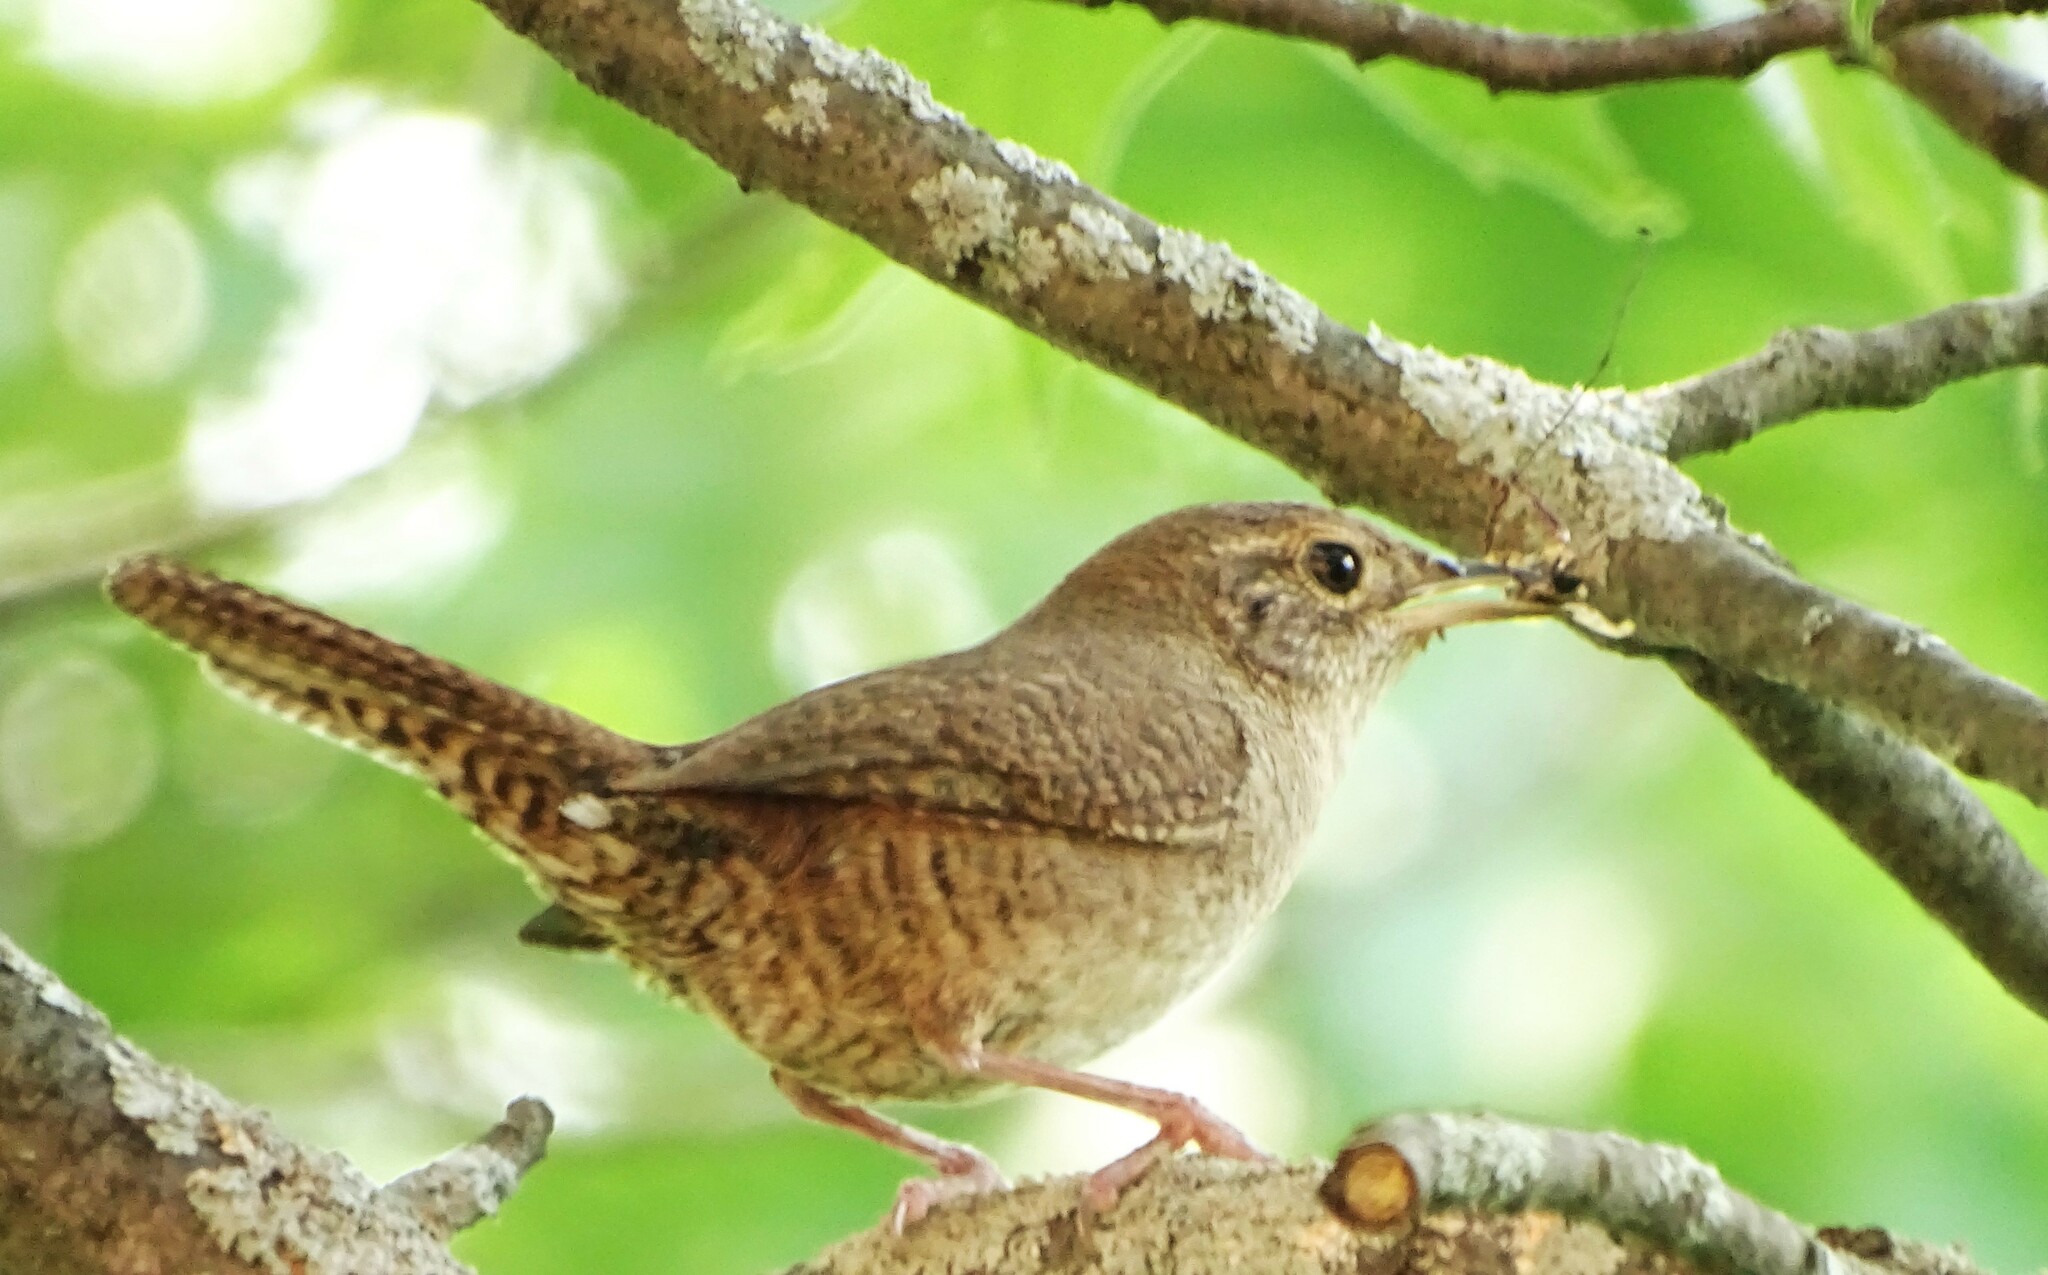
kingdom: Animalia
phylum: Chordata
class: Aves
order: Passeriformes
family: Troglodytidae
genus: Troglodytes
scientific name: Troglodytes aedon
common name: House wren
